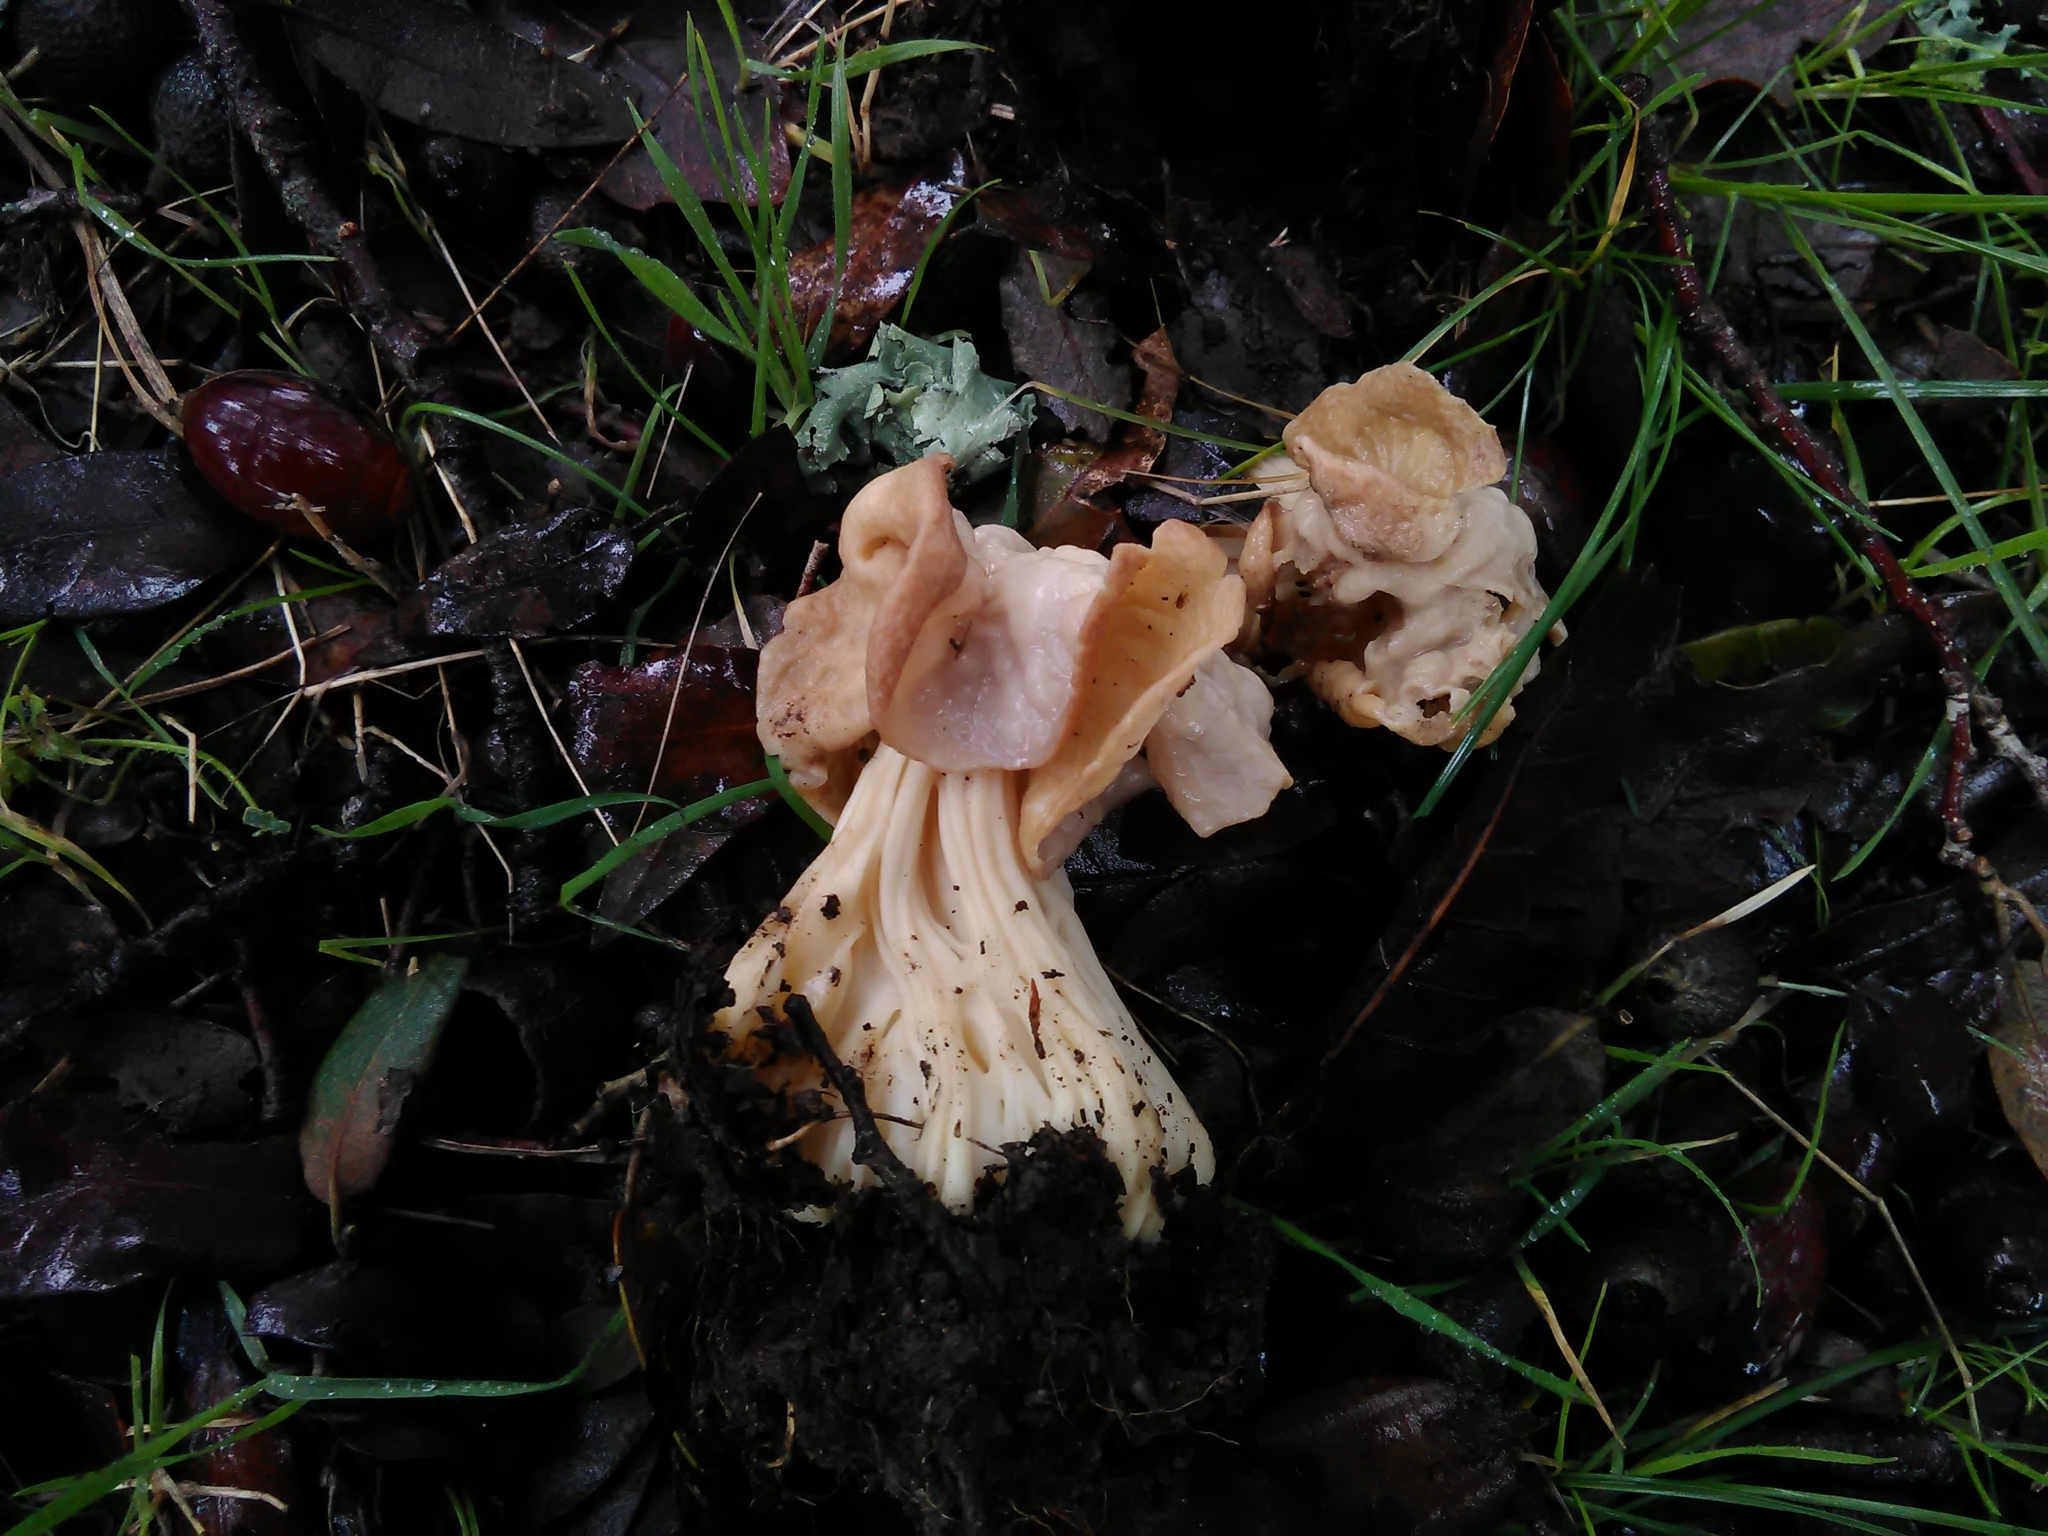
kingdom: Fungi
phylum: Ascomycota
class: Pezizomycetes
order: Pezizales
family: Helvellaceae
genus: Helvella
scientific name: Helvella crispa
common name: White saddle
